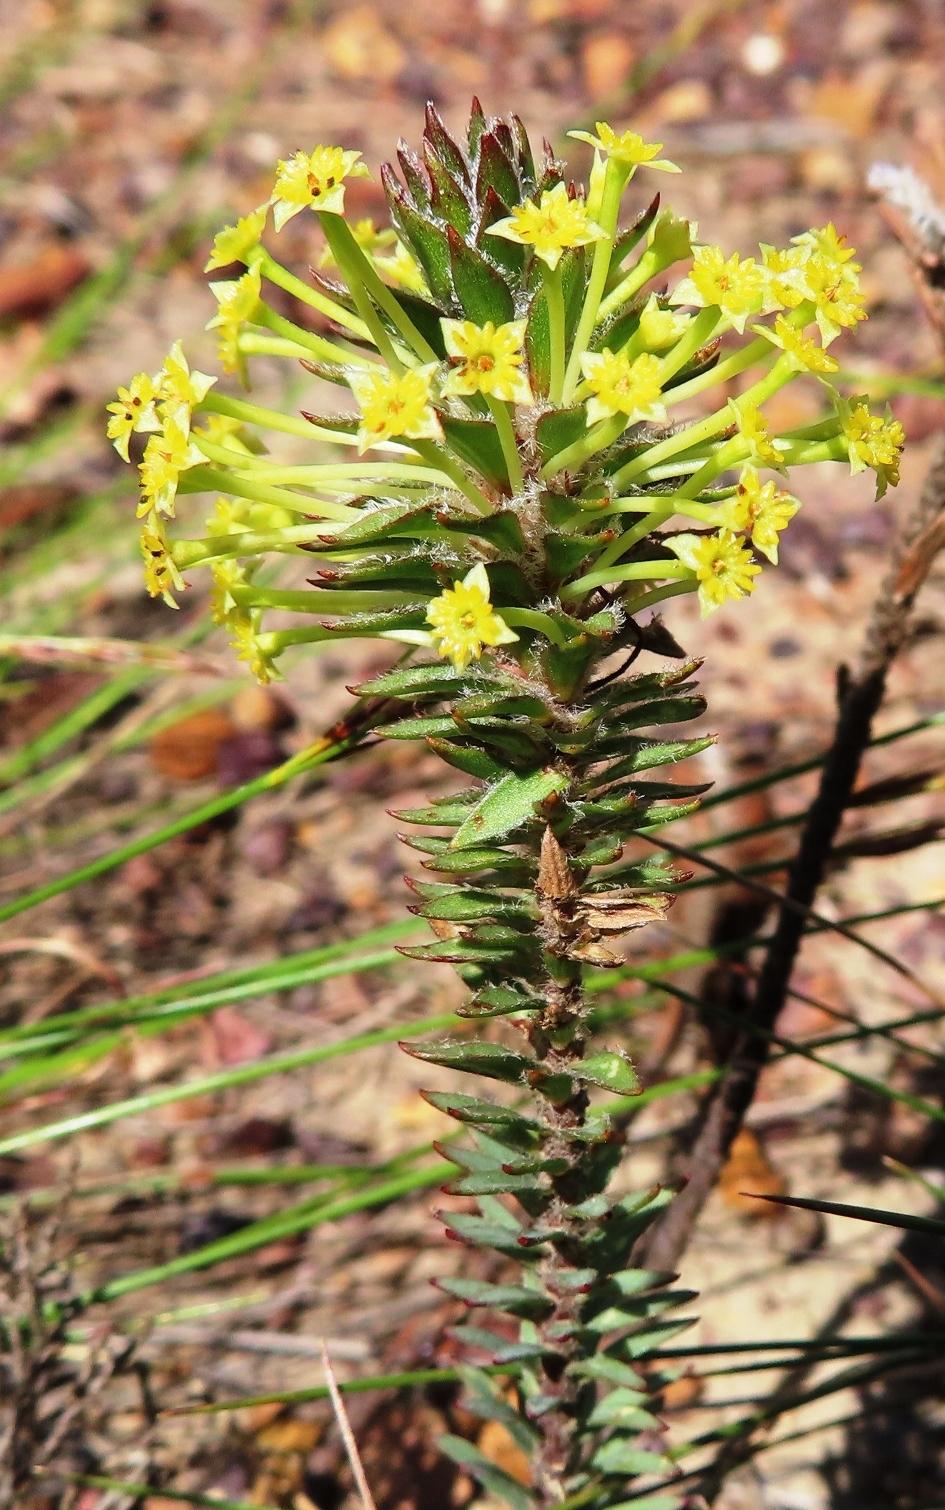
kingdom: Plantae
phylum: Tracheophyta
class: Magnoliopsida
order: Malvales
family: Thymelaeaceae
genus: Struthiola
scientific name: Struthiola mundtii
